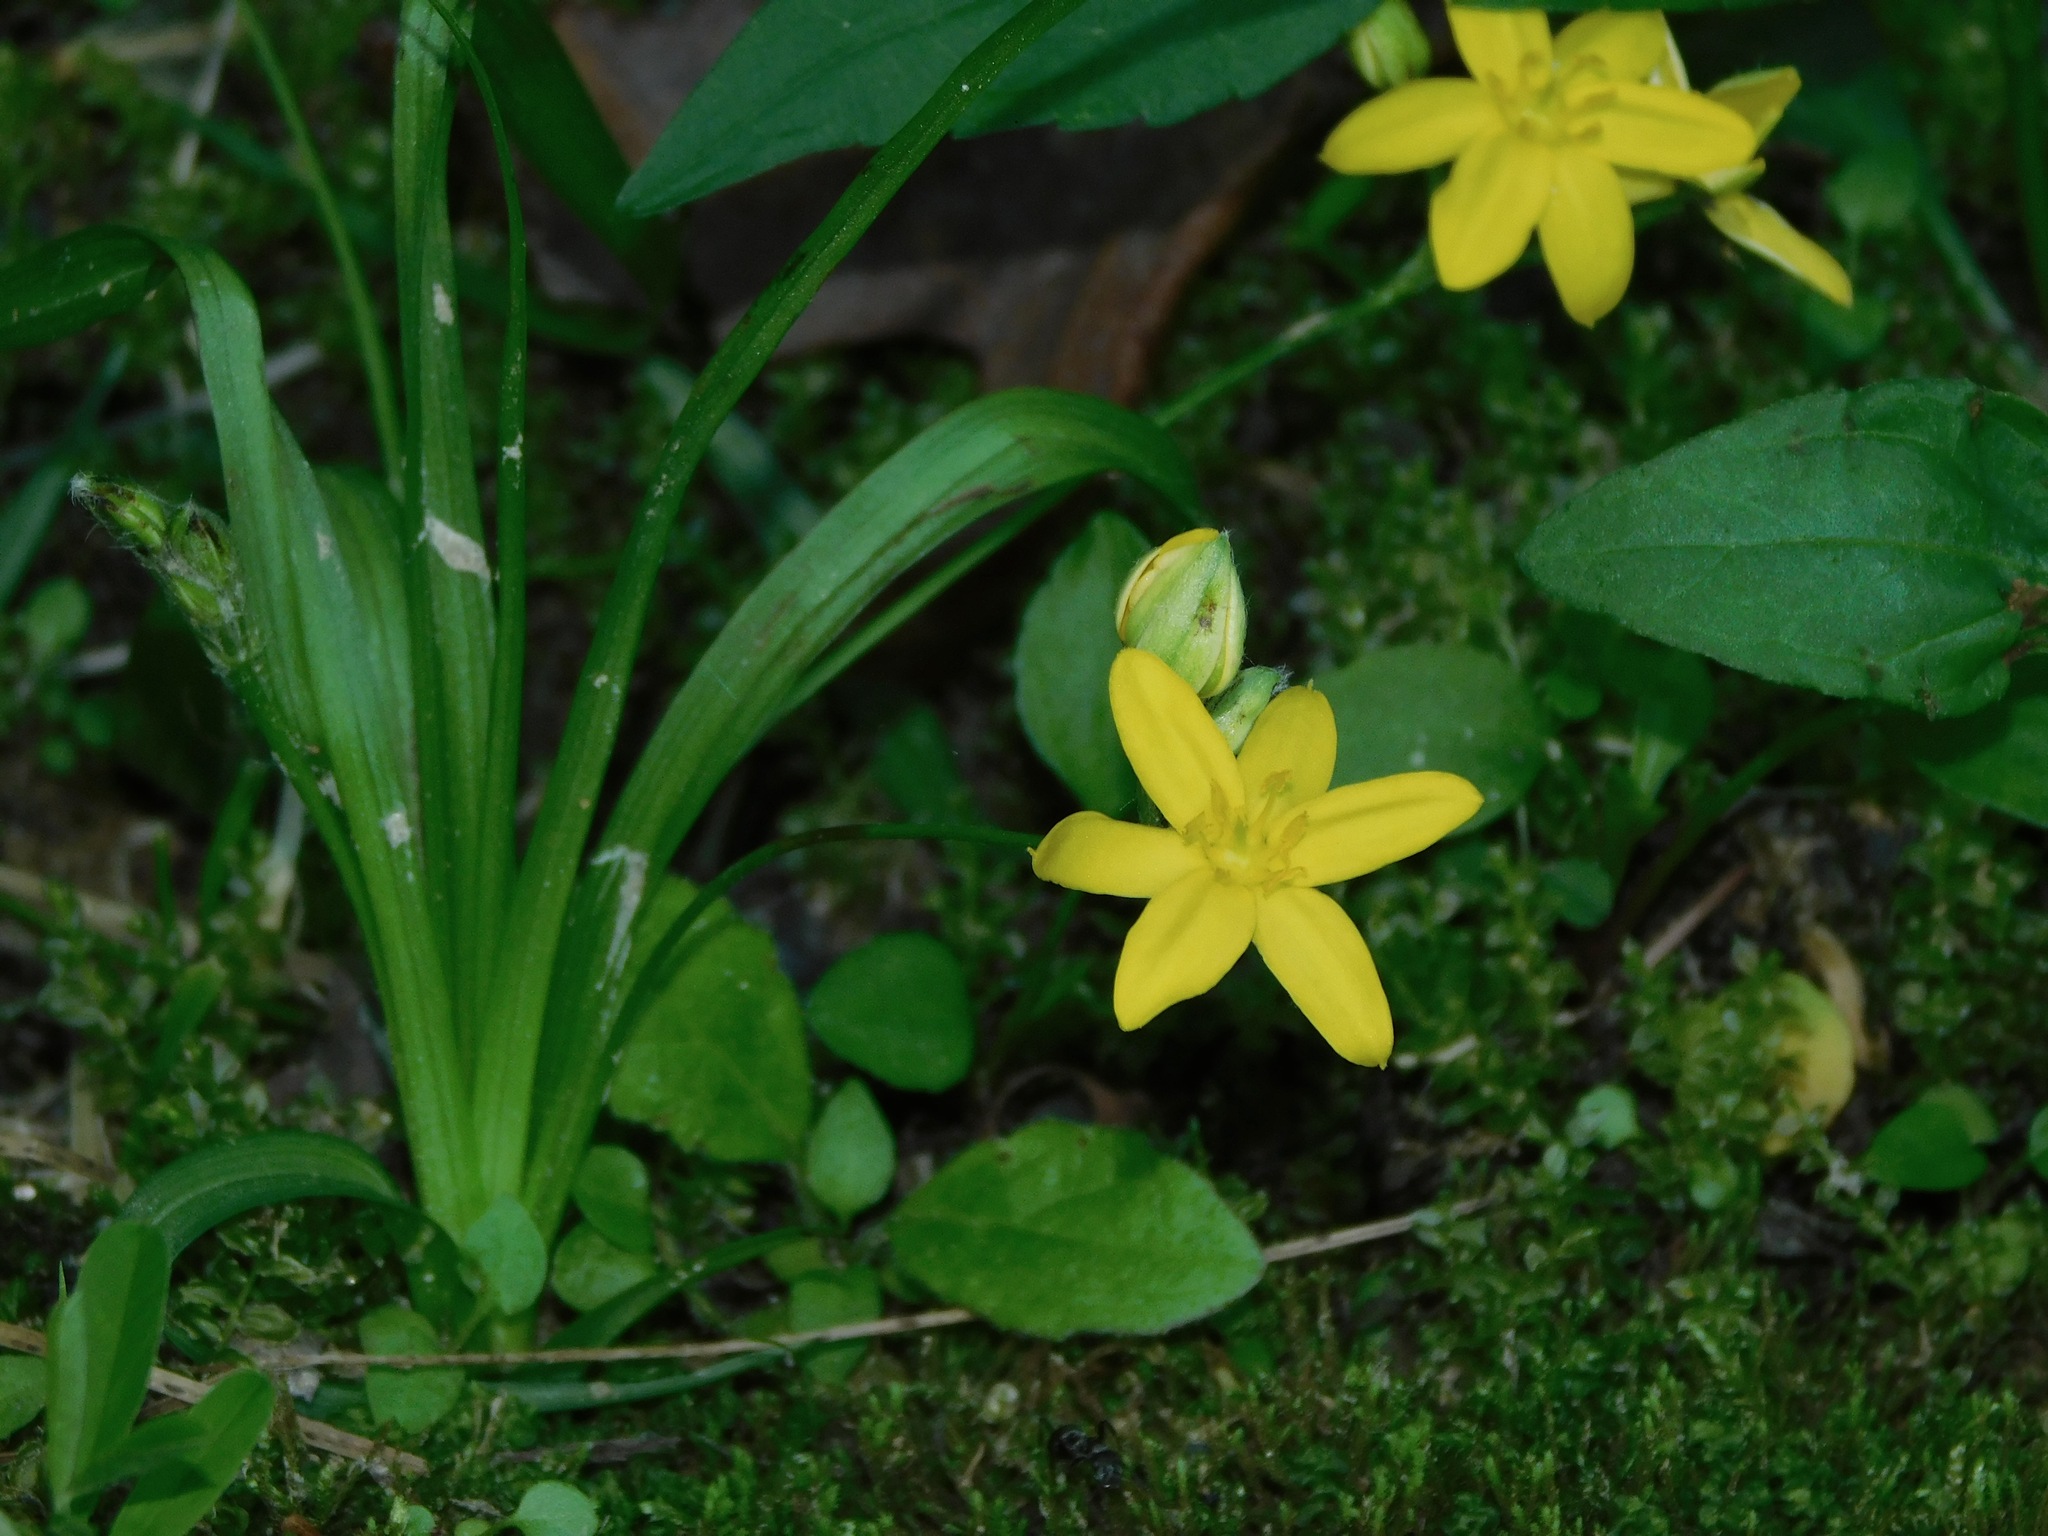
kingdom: Plantae
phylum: Tracheophyta
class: Liliopsida
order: Asparagales
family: Hypoxidaceae
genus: Hypoxis
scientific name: Hypoxis hirsuta
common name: Common goldstar
